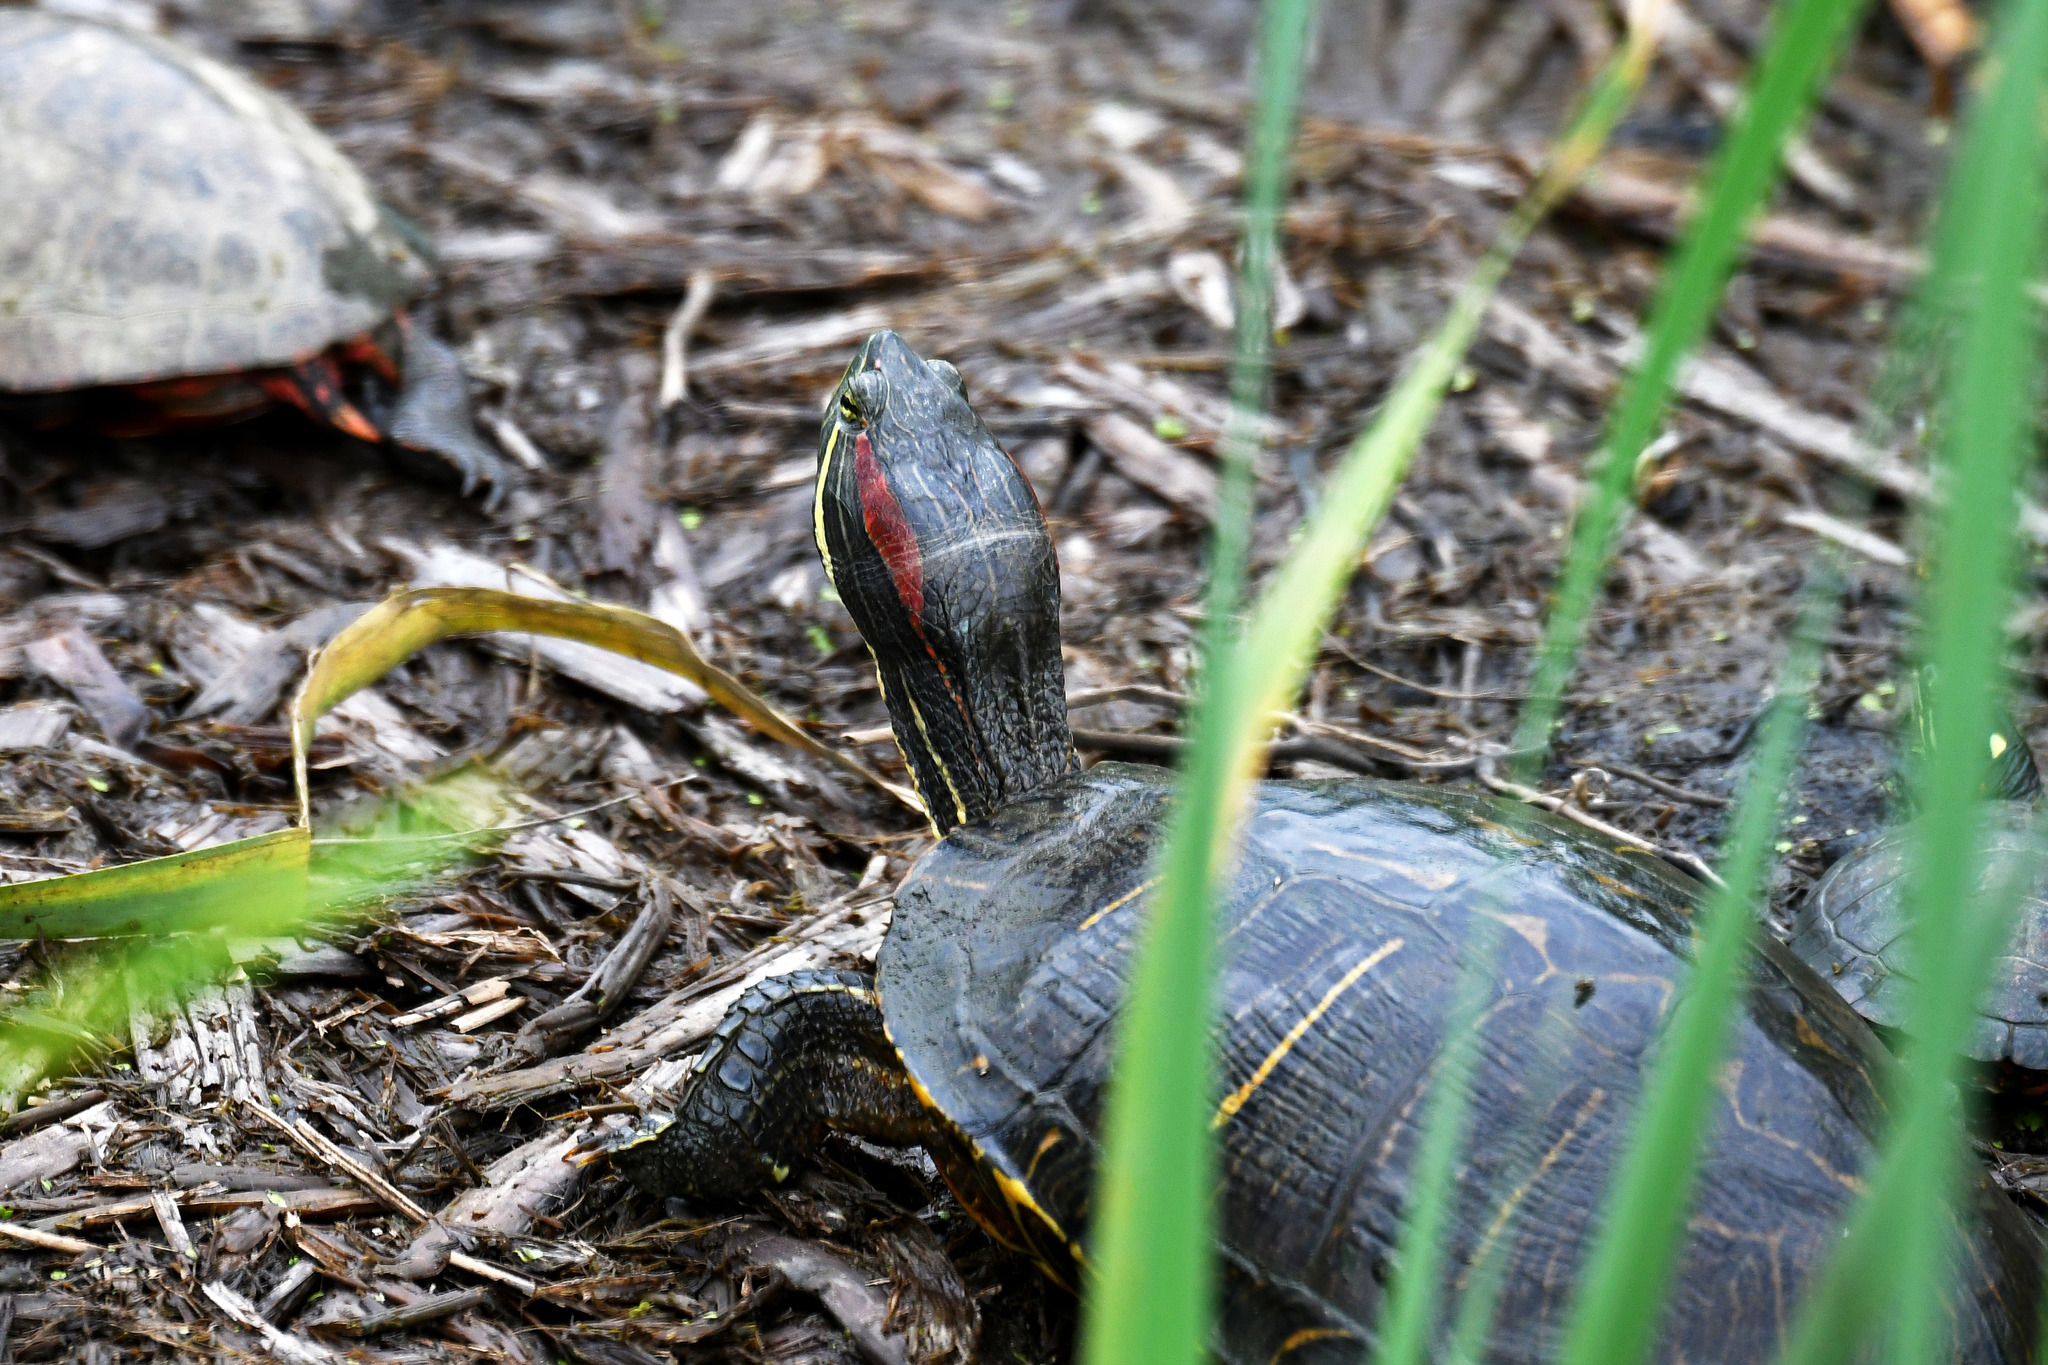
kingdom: Animalia
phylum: Chordata
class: Testudines
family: Emydidae
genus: Trachemys
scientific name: Trachemys scripta
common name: Slider
